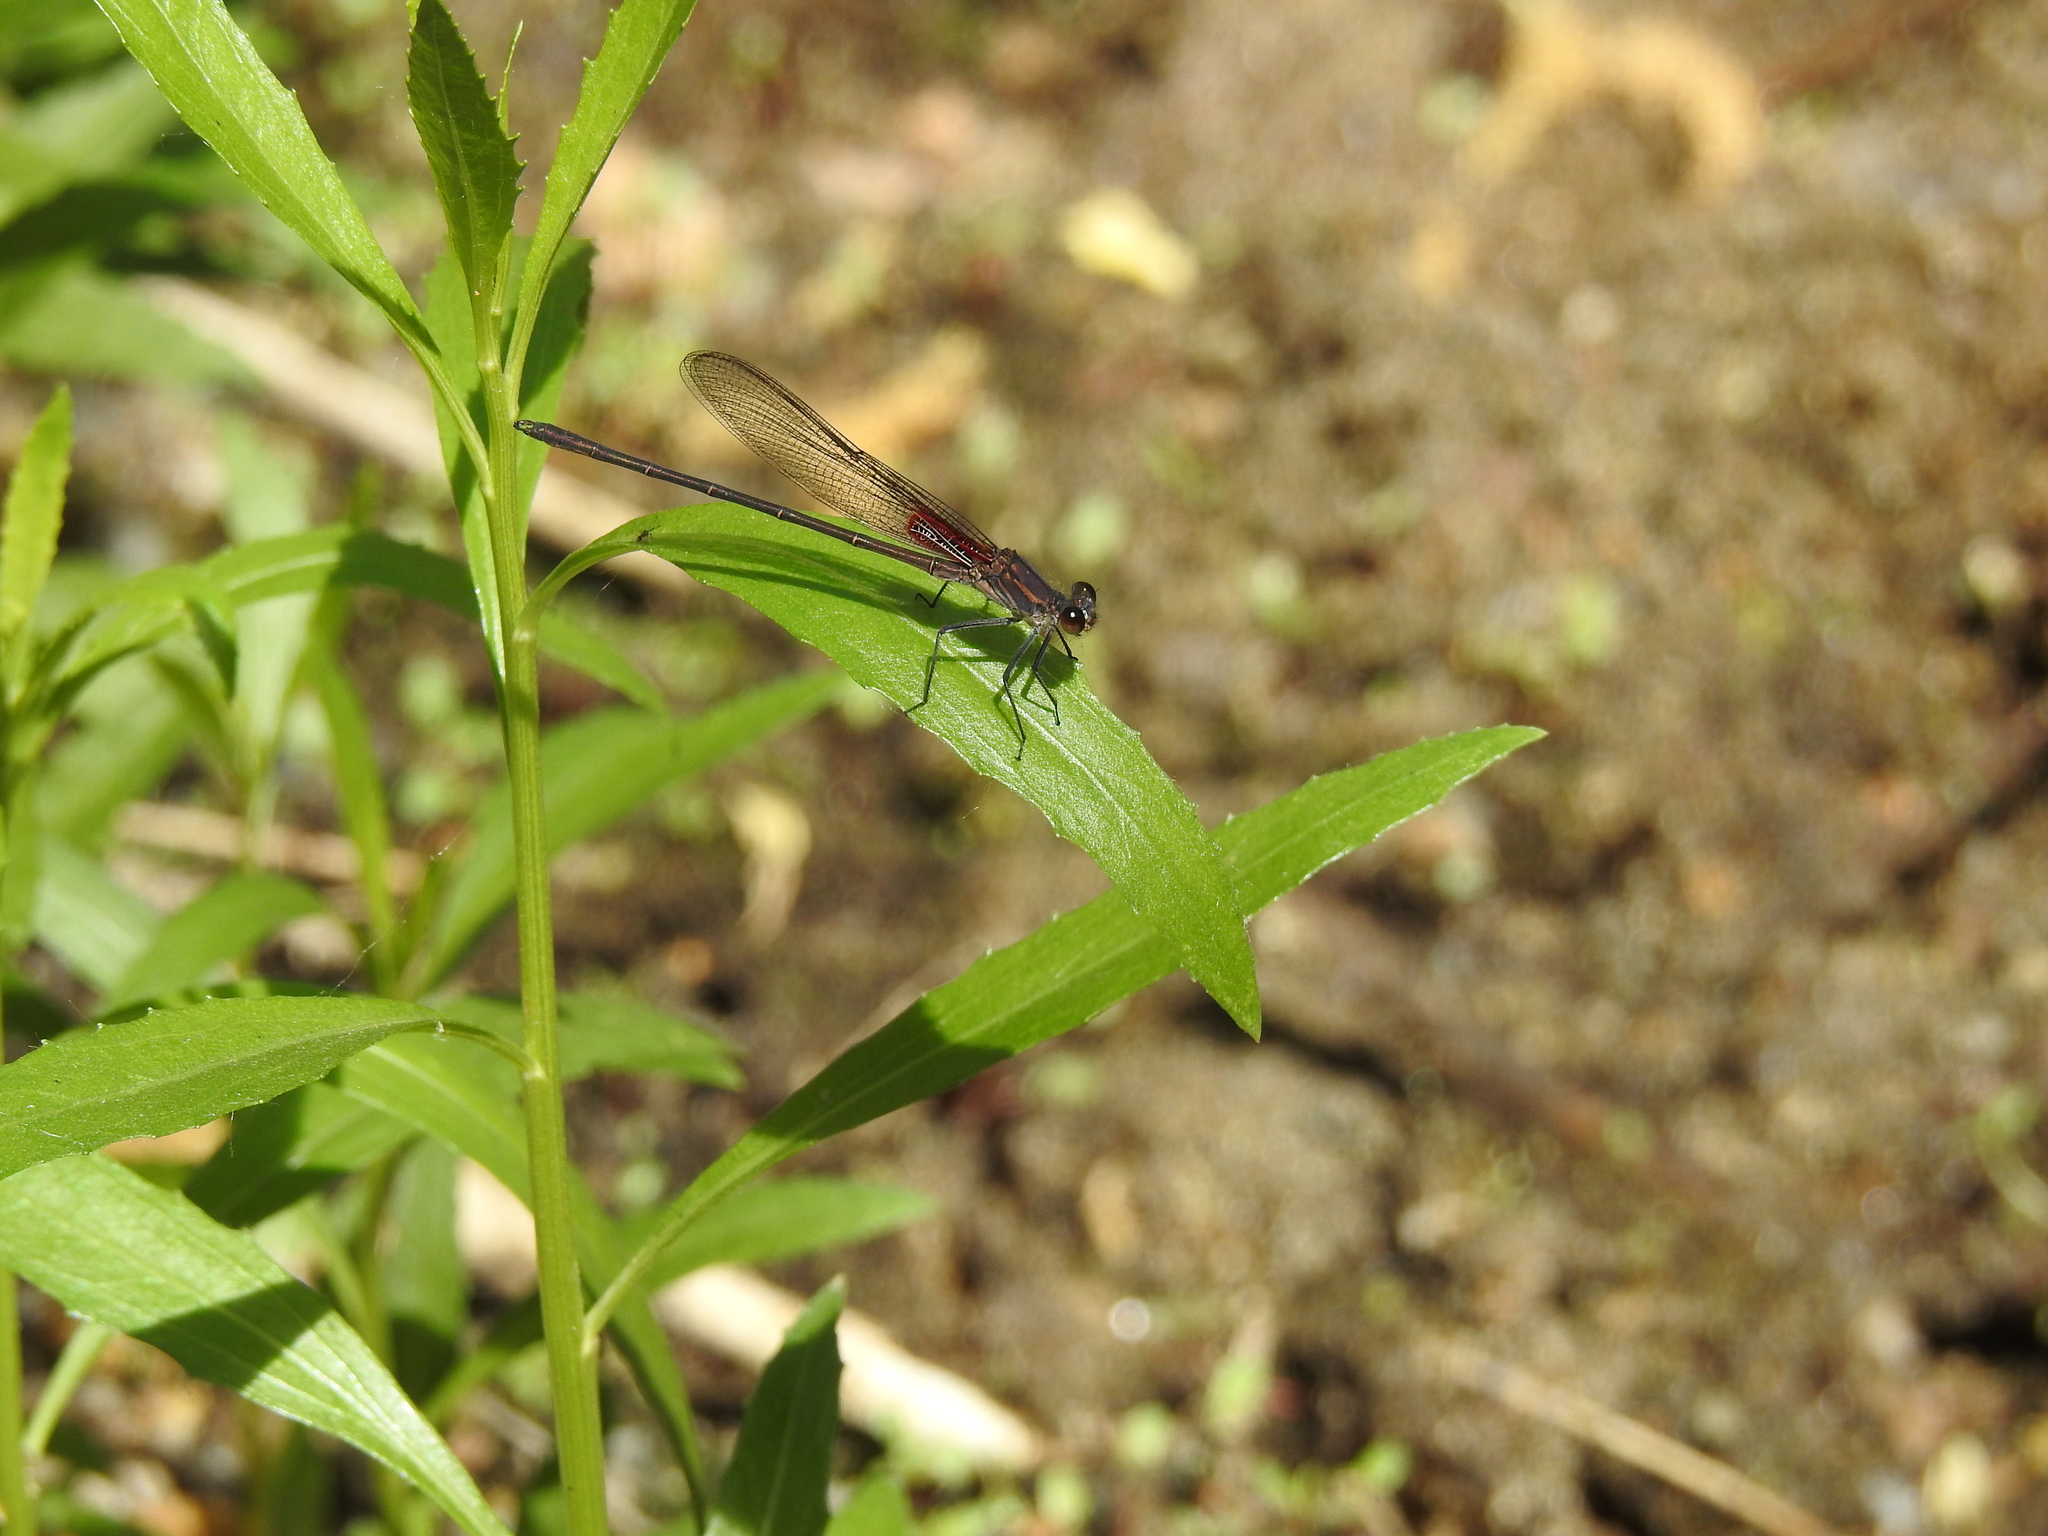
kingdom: Animalia
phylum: Arthropoda
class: Insecta
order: Odonata
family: Calopterygidae
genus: Hetaerina
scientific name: Hetaerina americana
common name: American rubyspot
